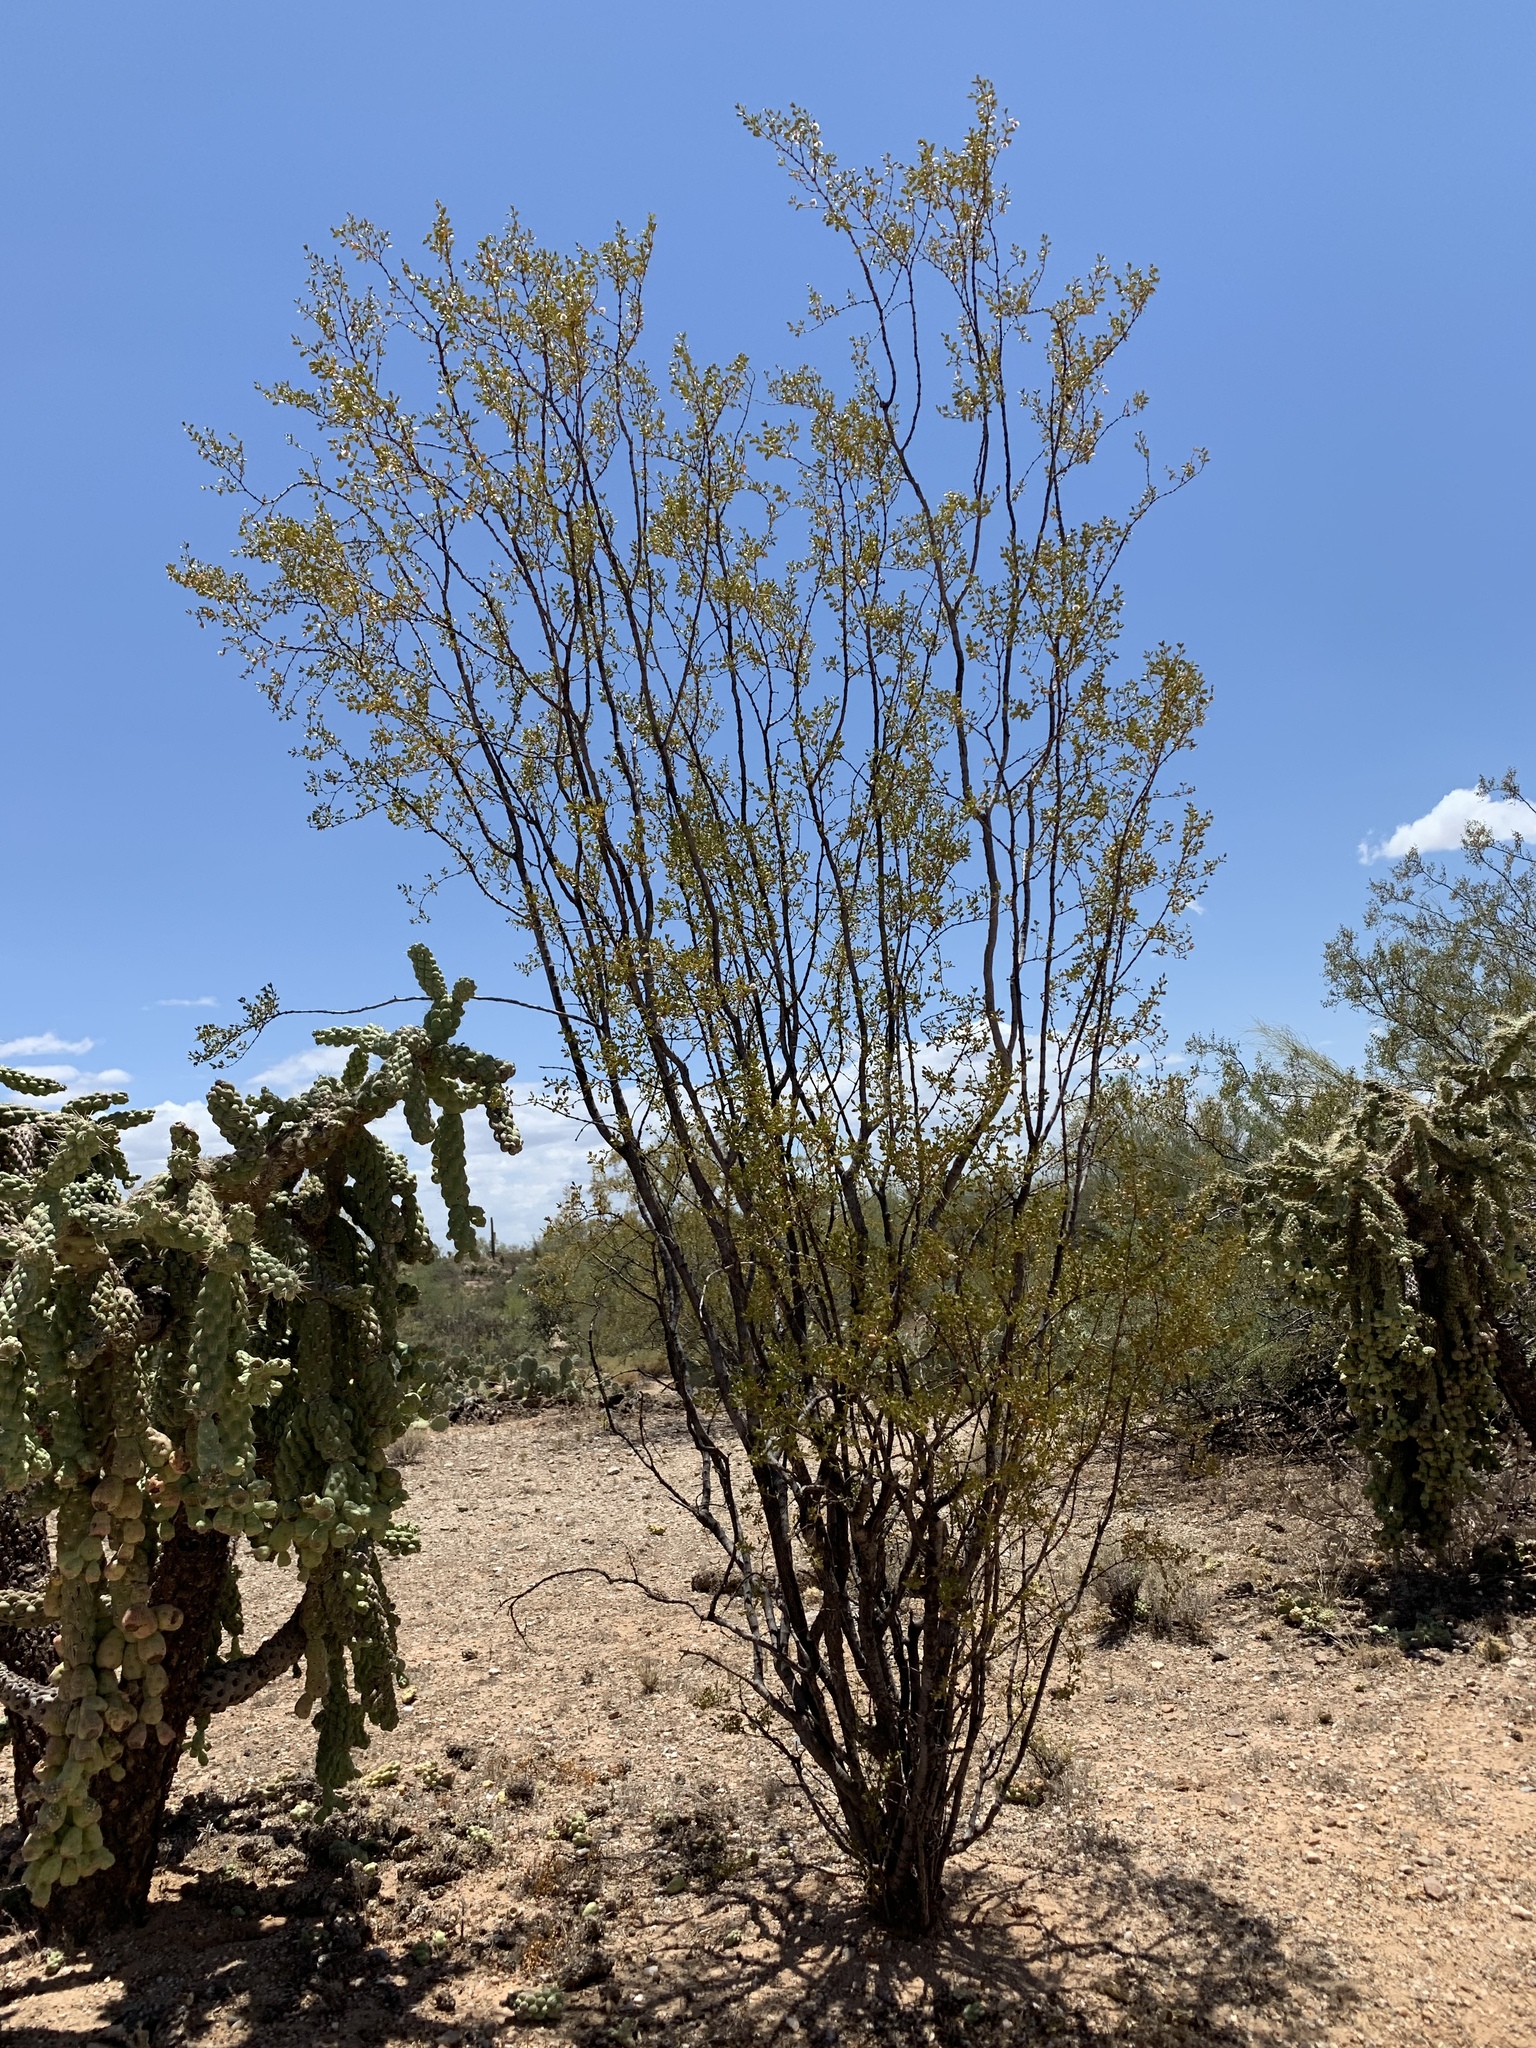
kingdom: Plantae
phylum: Tracheophyta
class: Magnoliopsida
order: Zygophyllales
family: Zygophyllaceae
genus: Larrea
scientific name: Larrea tridentata
